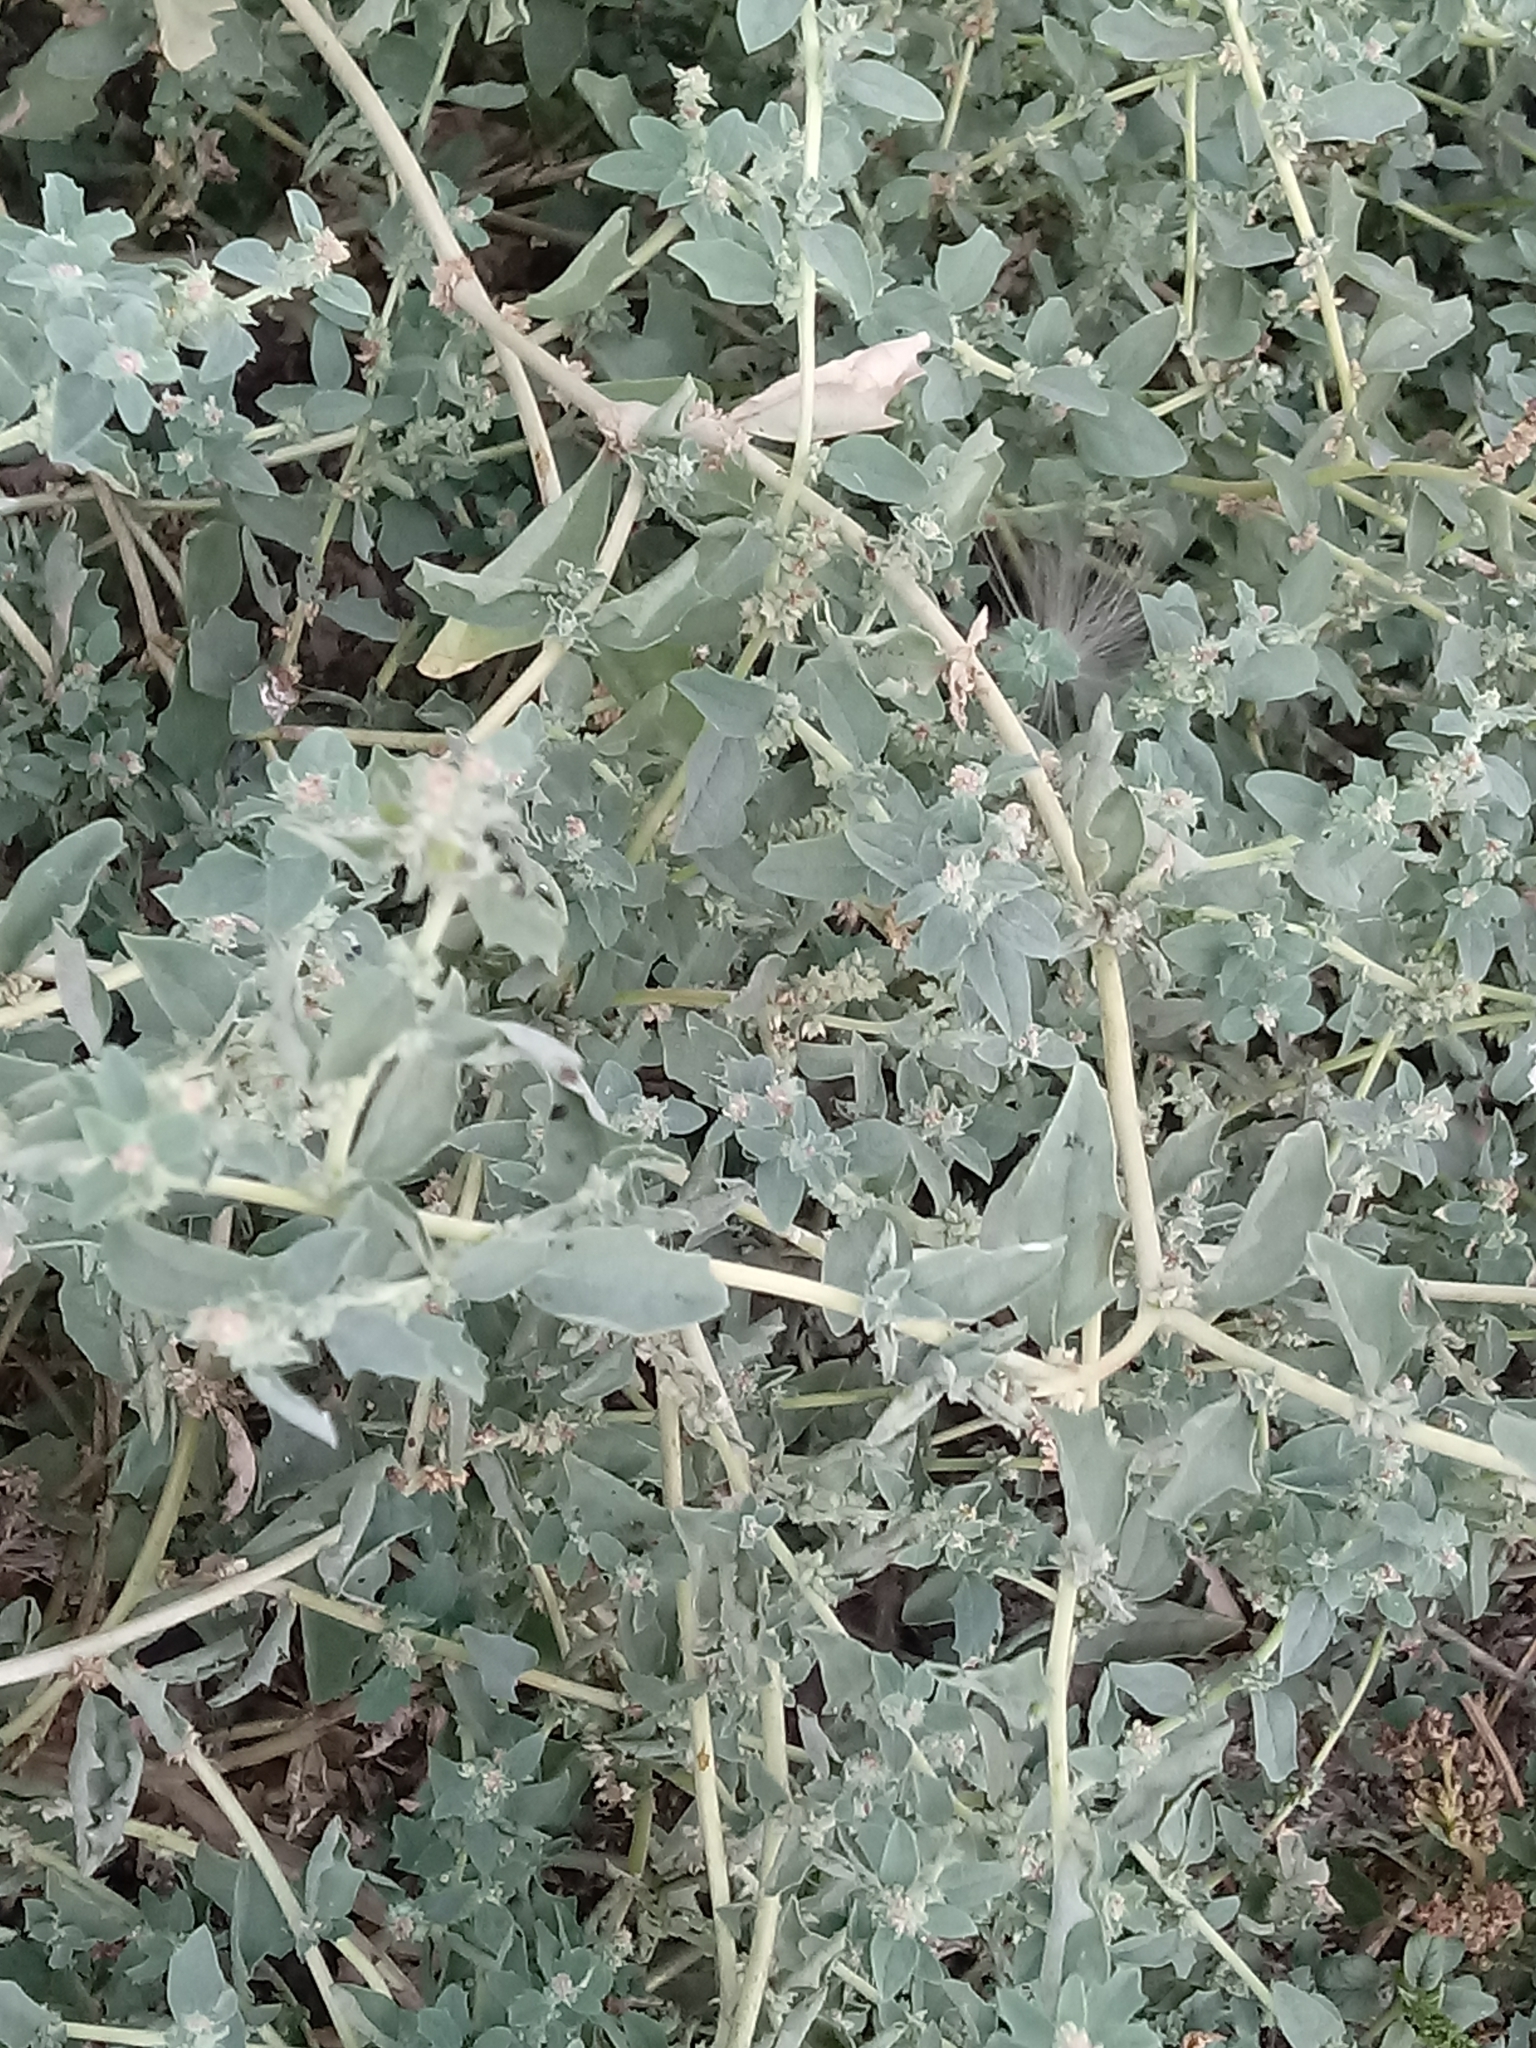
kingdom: Plantae
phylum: Tracheophyta
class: Magnoliopsida
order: Caryophyllales
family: Amaranthaceae
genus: Atriplex
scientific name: Atriplex suberecta
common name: Australian orache
